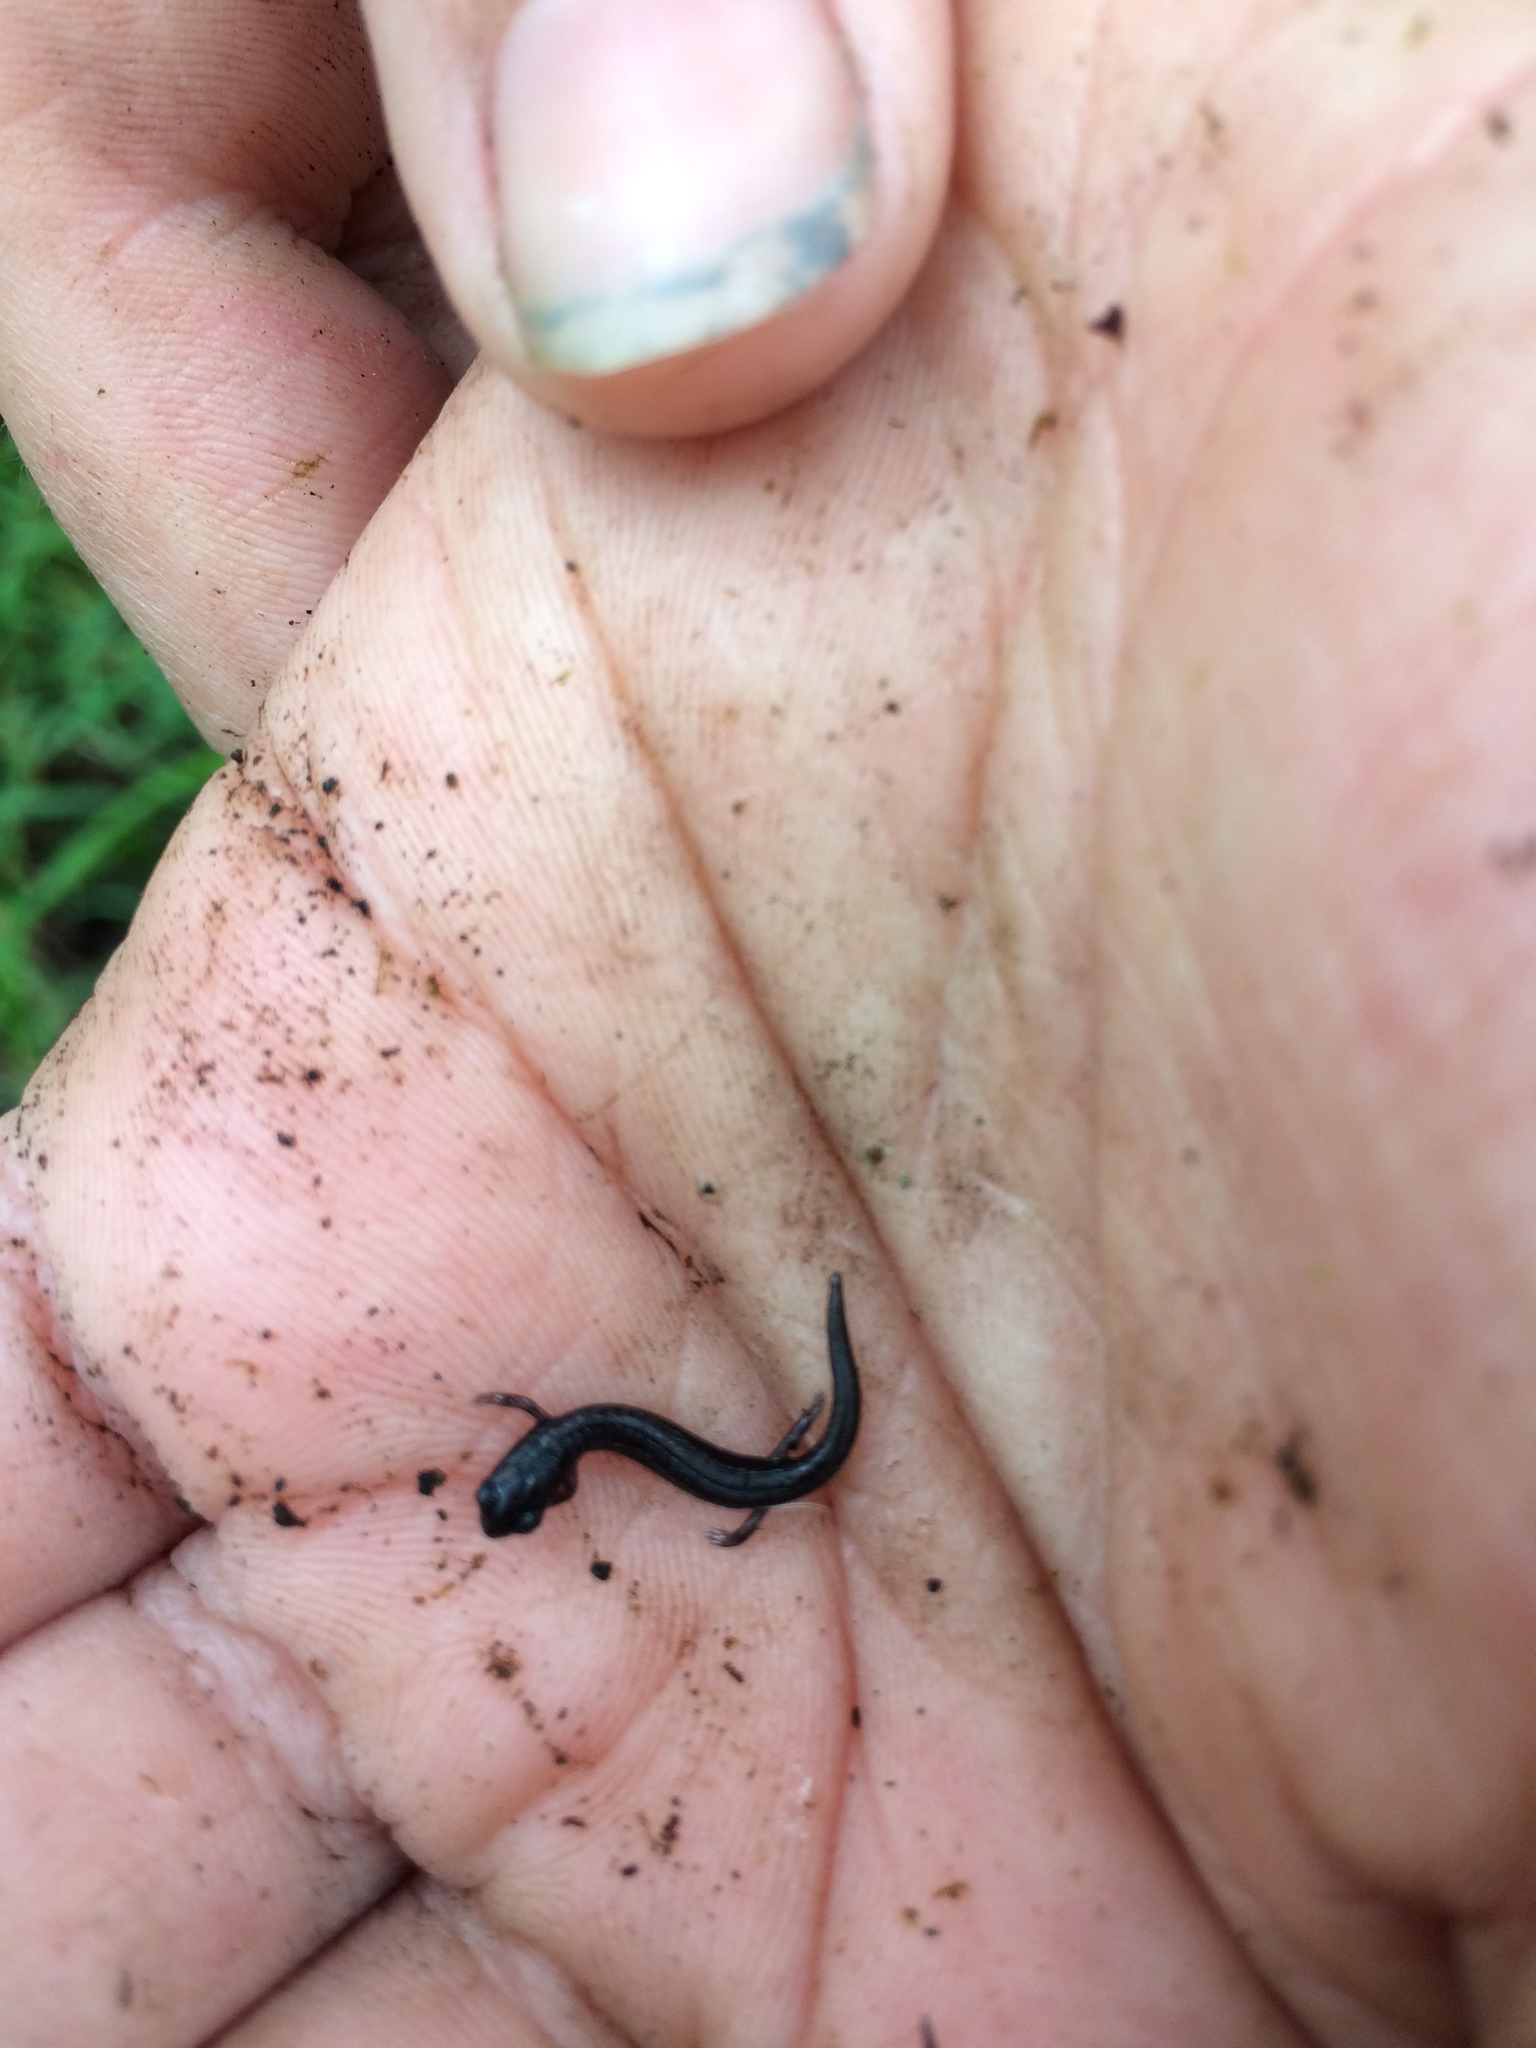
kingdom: Animalia
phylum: Chordata
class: Amphibia
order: Caudata
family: Plethodontidae
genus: Batrachoseps
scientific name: Batrachoseps attenuatus
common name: California slender salamander
